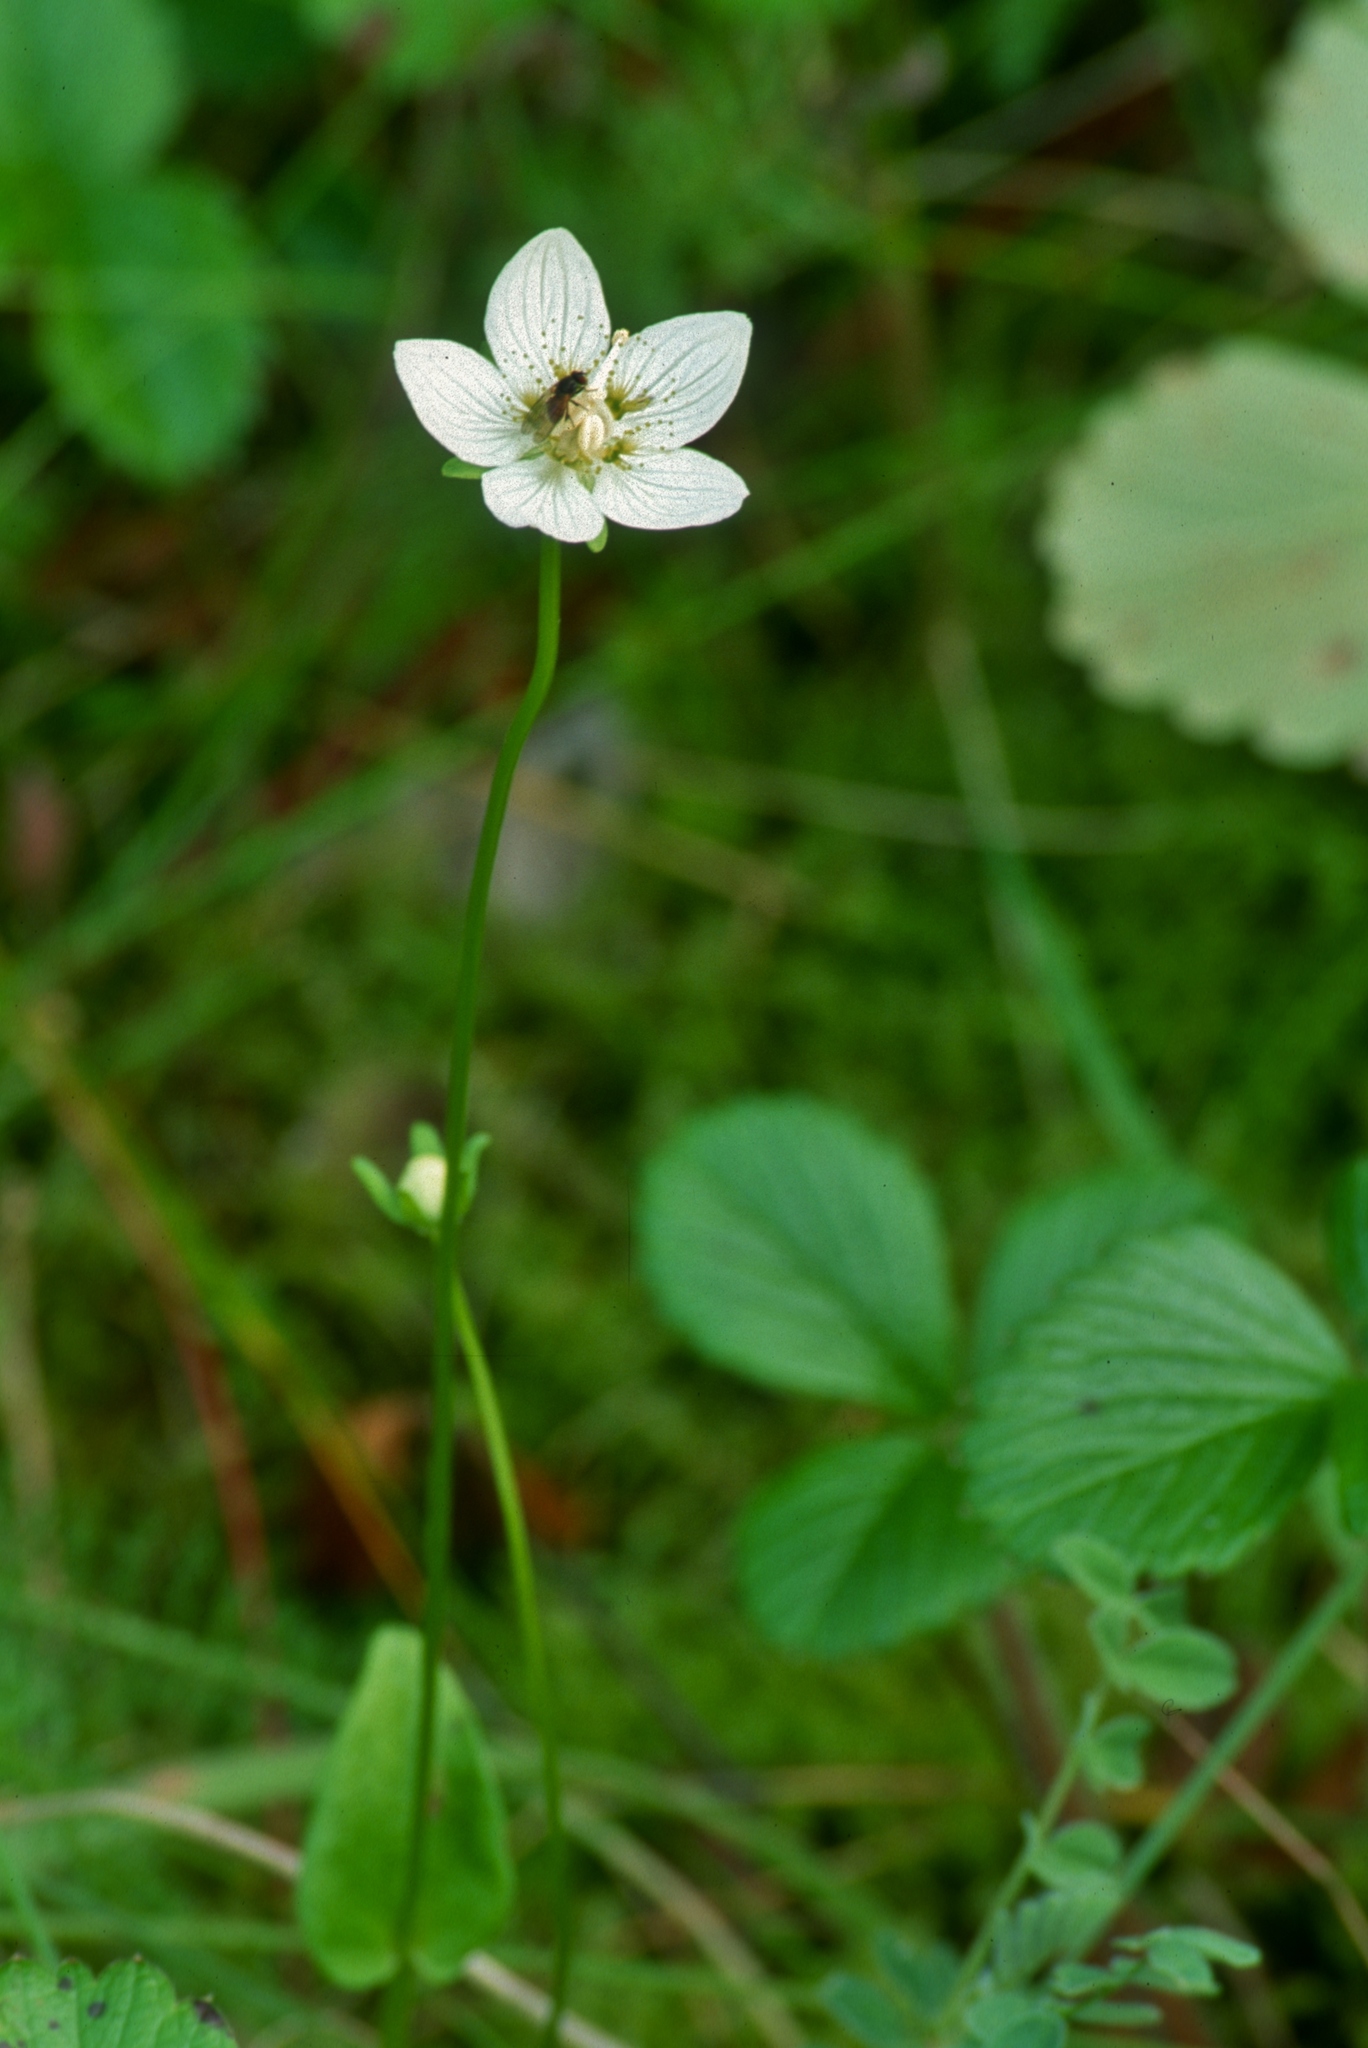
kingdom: Plantae
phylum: Tracheophyta
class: Magnoliopsida
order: Celastrales
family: Parnassiaceae
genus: Parnassia
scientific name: Parnassia palustris
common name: Grass-of-parnassus
